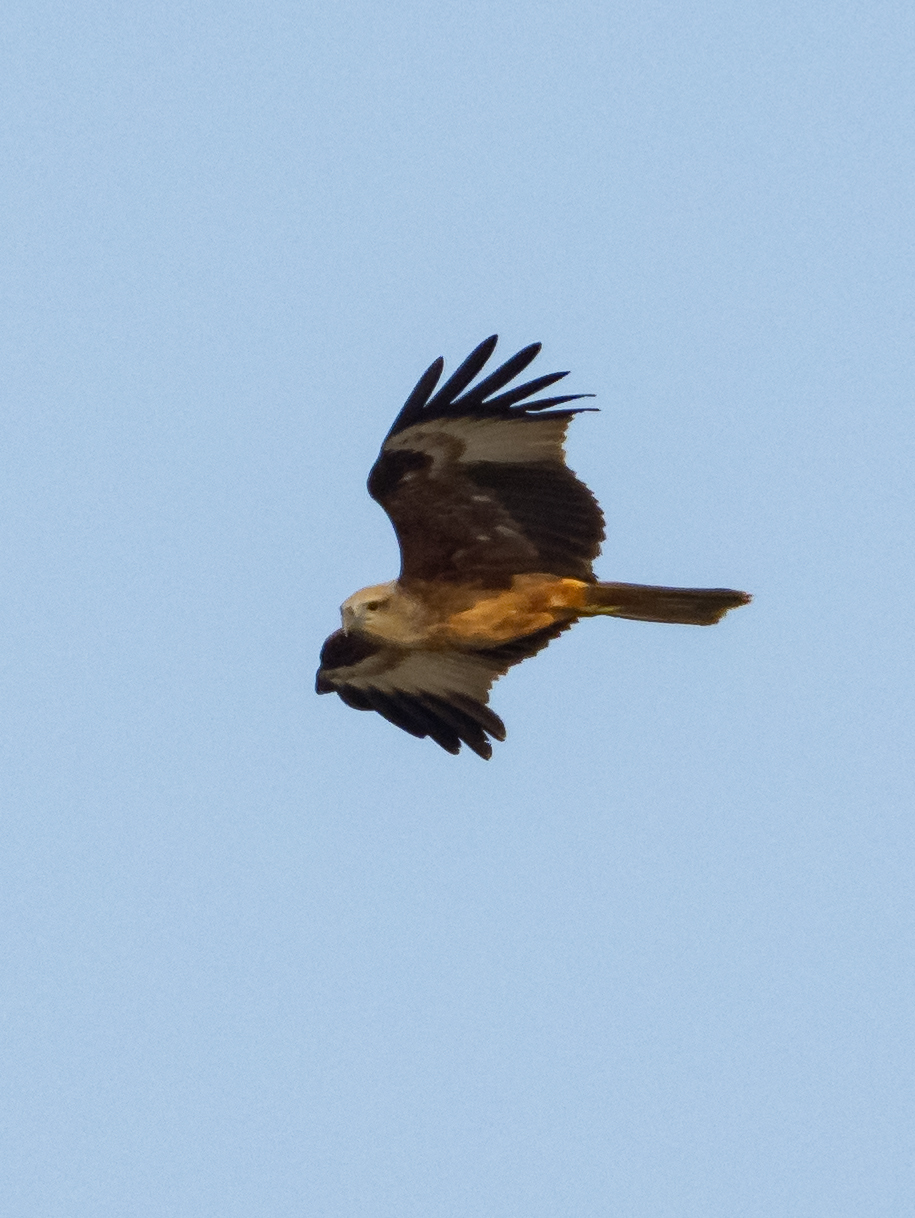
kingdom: Animalia
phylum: Chordata
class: Aves
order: Accipitriformes
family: Accipitridae
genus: Haliastur
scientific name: Haliastur indus
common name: Brahminy kite
